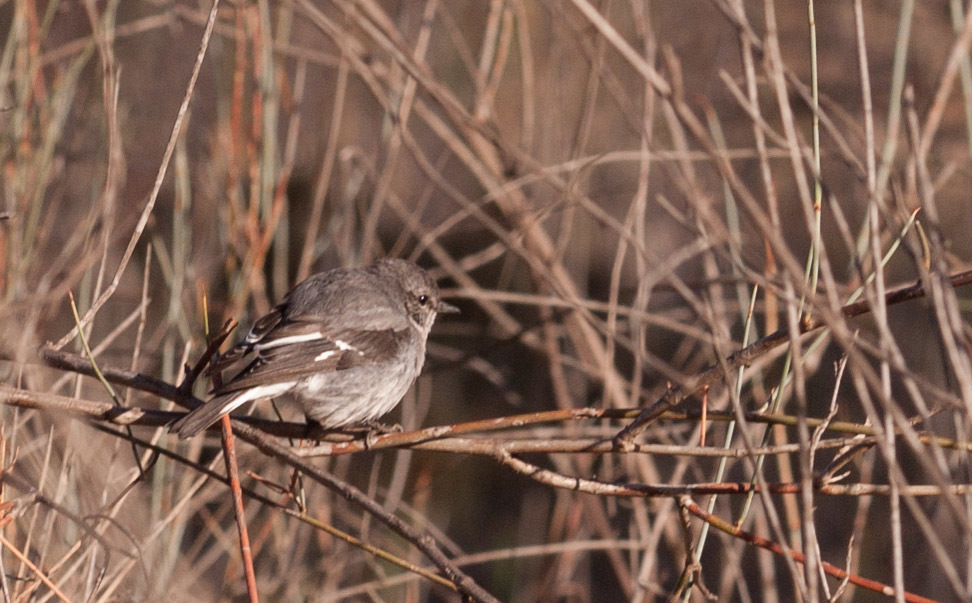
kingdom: Animalia
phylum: Chordata
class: Aves
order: Passeriformes
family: Petroicidae
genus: Melanodryas
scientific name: Melanodryas cucullata
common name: Hooded robin
